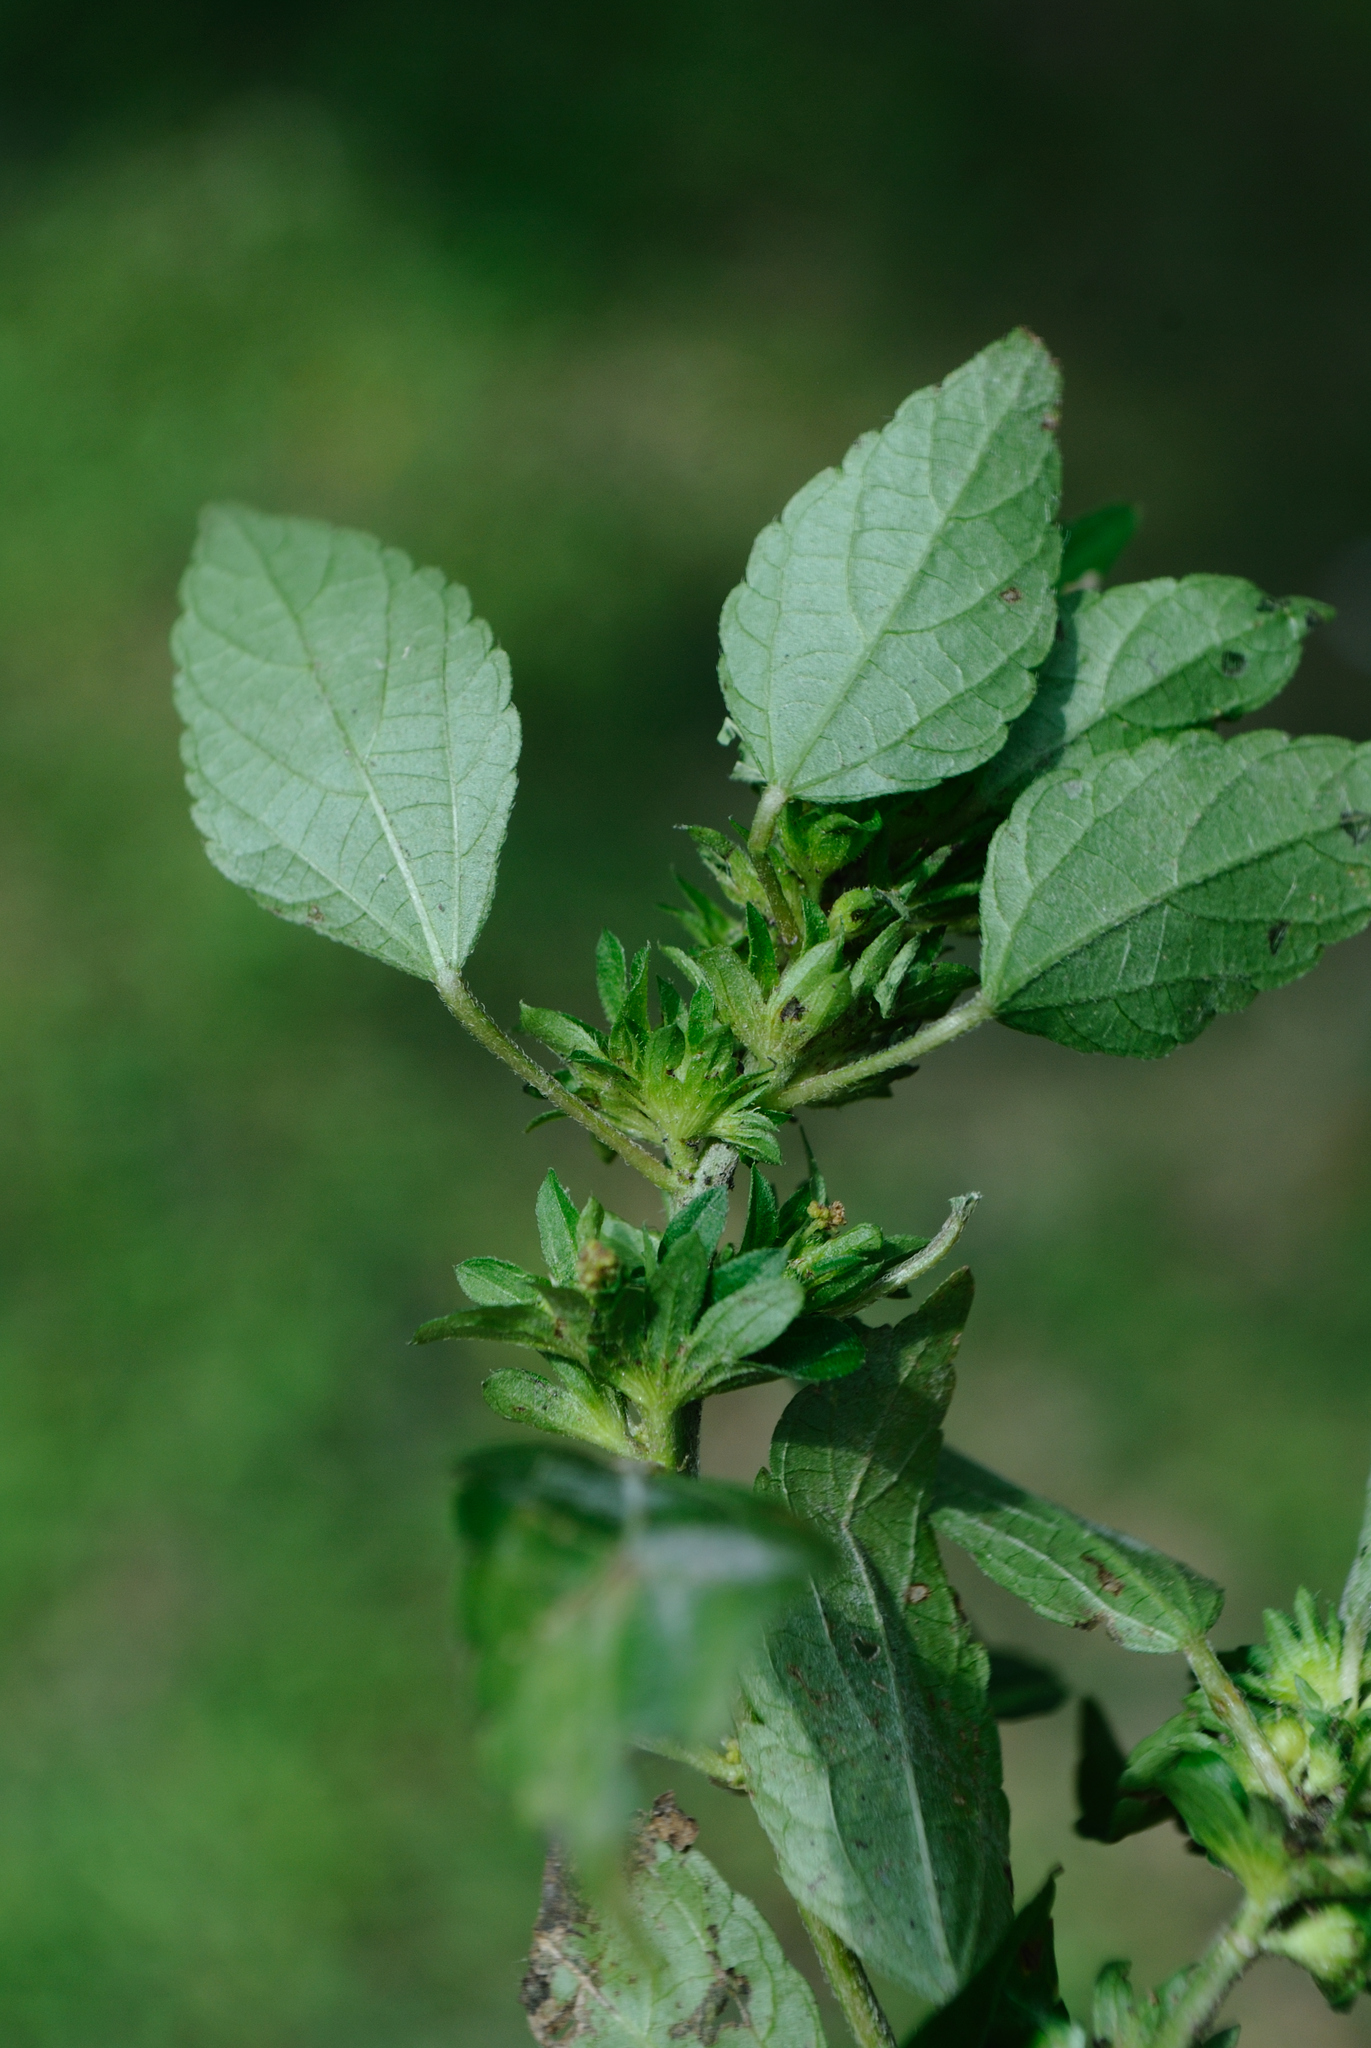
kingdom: Plantae
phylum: Tracheophyta
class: Magnoliopsida
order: Malpighiales
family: Euphorbiaceae
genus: Acalypha
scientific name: Acalypha rhomboidea
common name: Rhombic copperleaf
